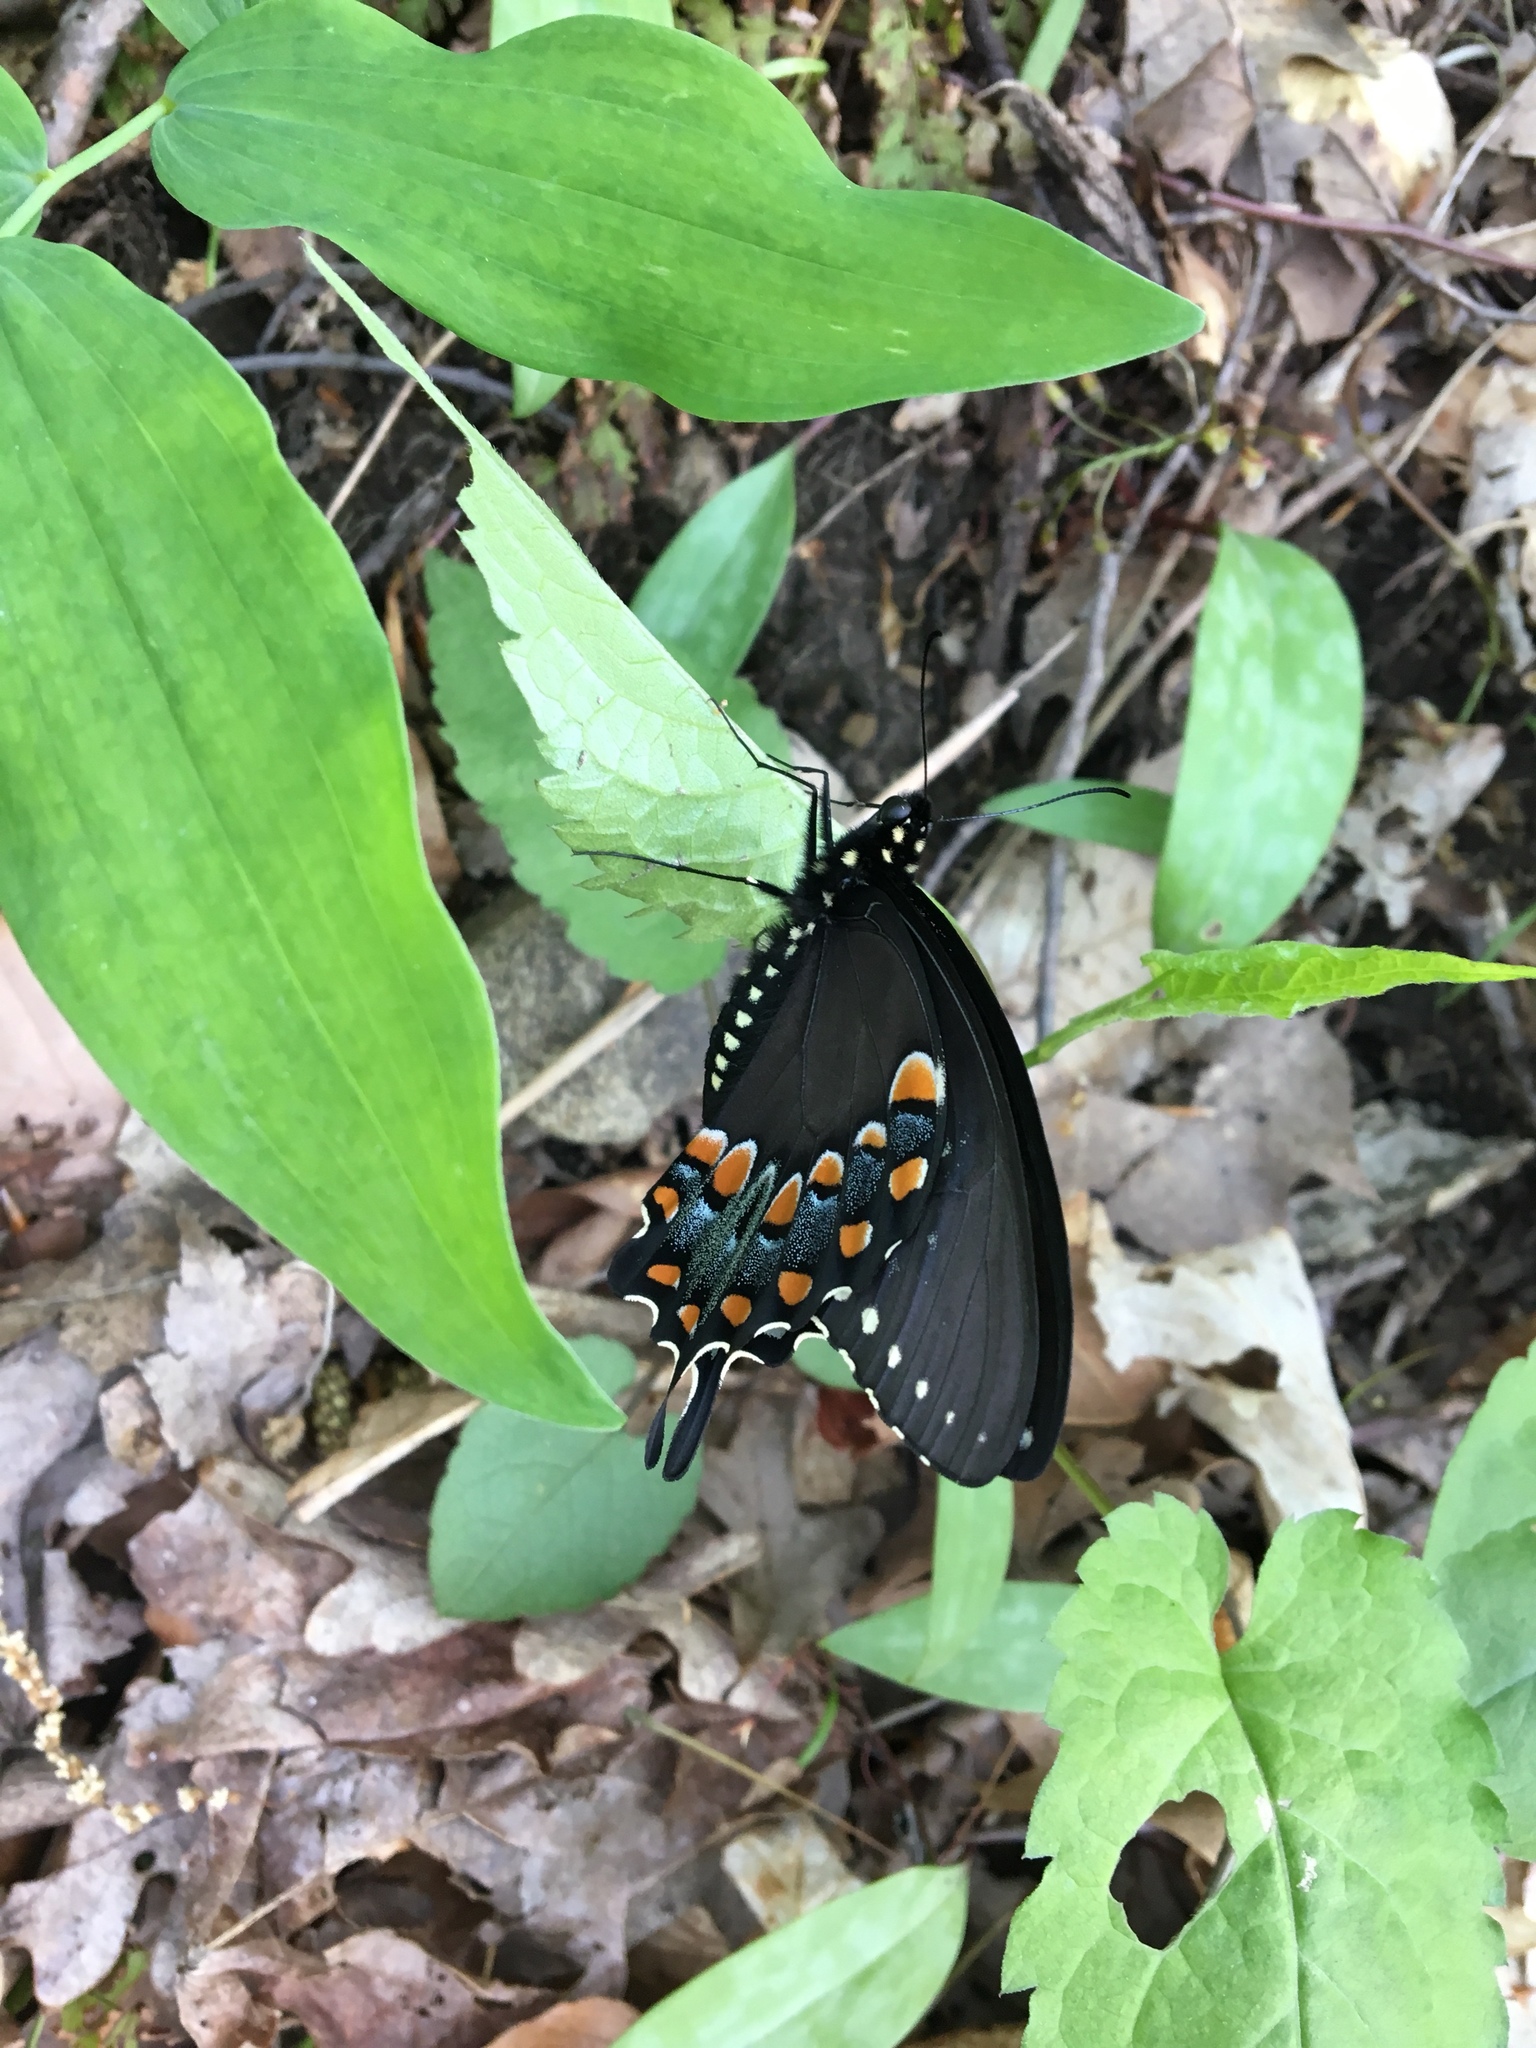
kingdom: Animalia
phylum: Arthropoda
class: Insecta
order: Lepidoptera
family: Papilionidae
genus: Papilio
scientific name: Papilio troilus
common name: Spicebush swallowtail
